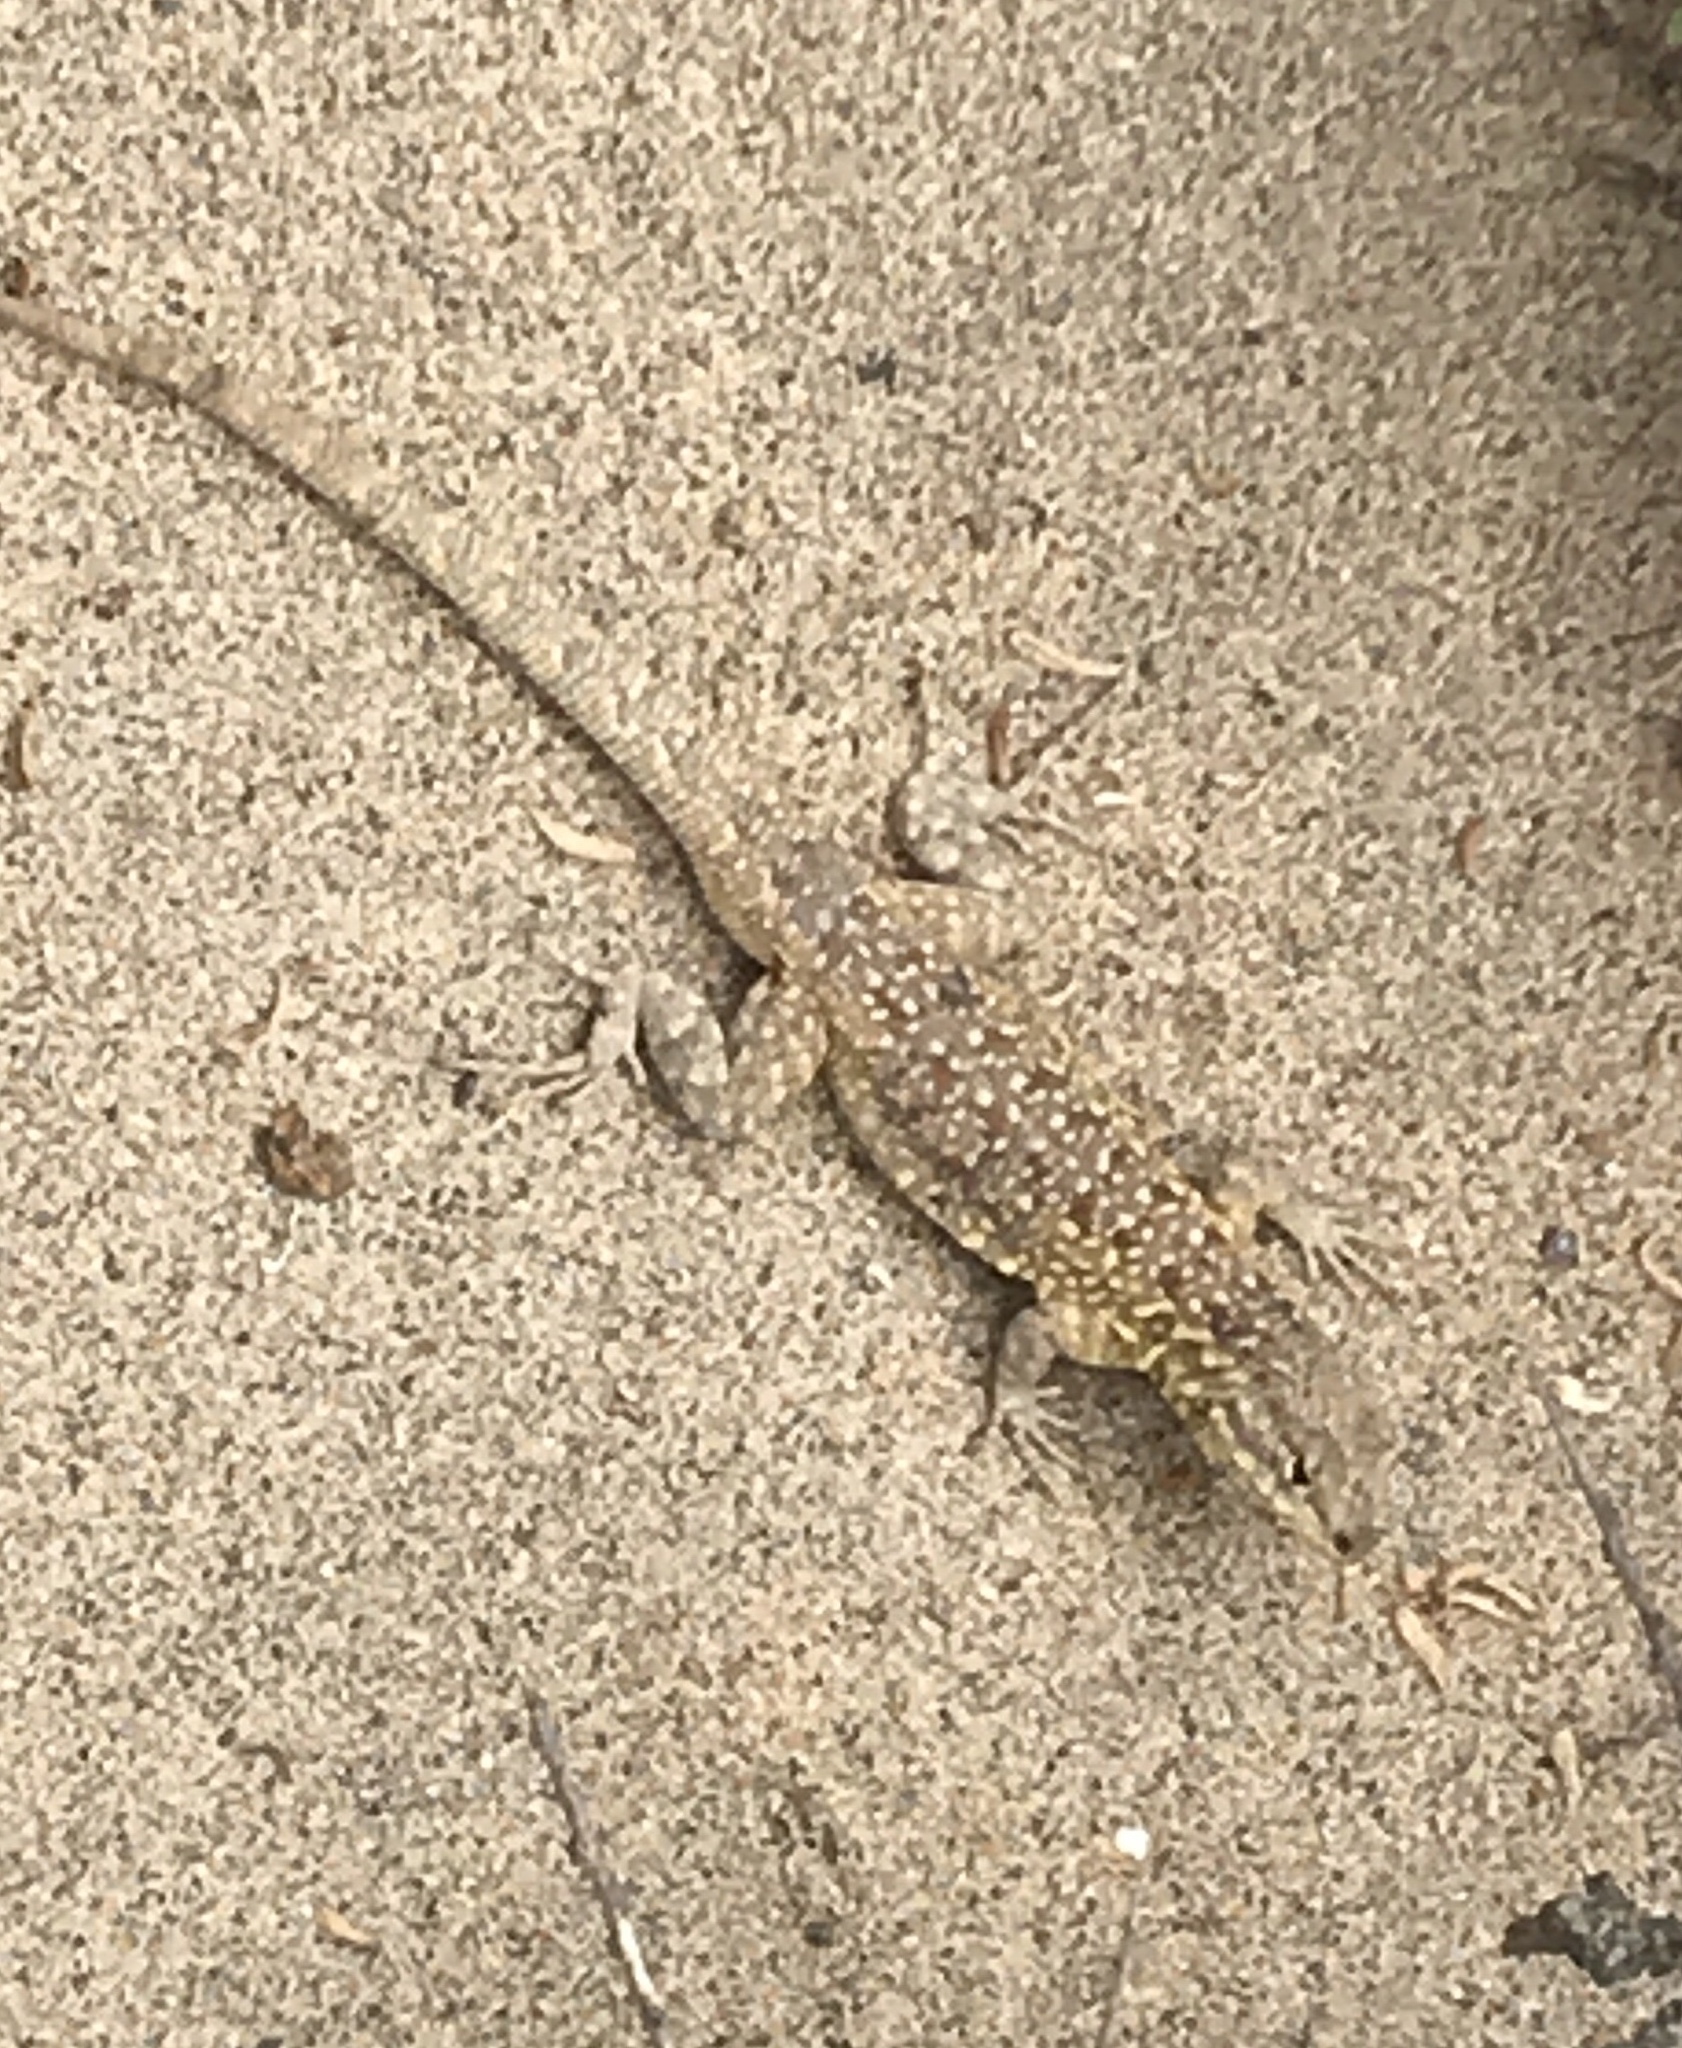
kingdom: Animalia
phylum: Chordata
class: Squamata
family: Phrynosomatidae
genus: Uta
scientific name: Uta stansburiana
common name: Side-blotched lizard
